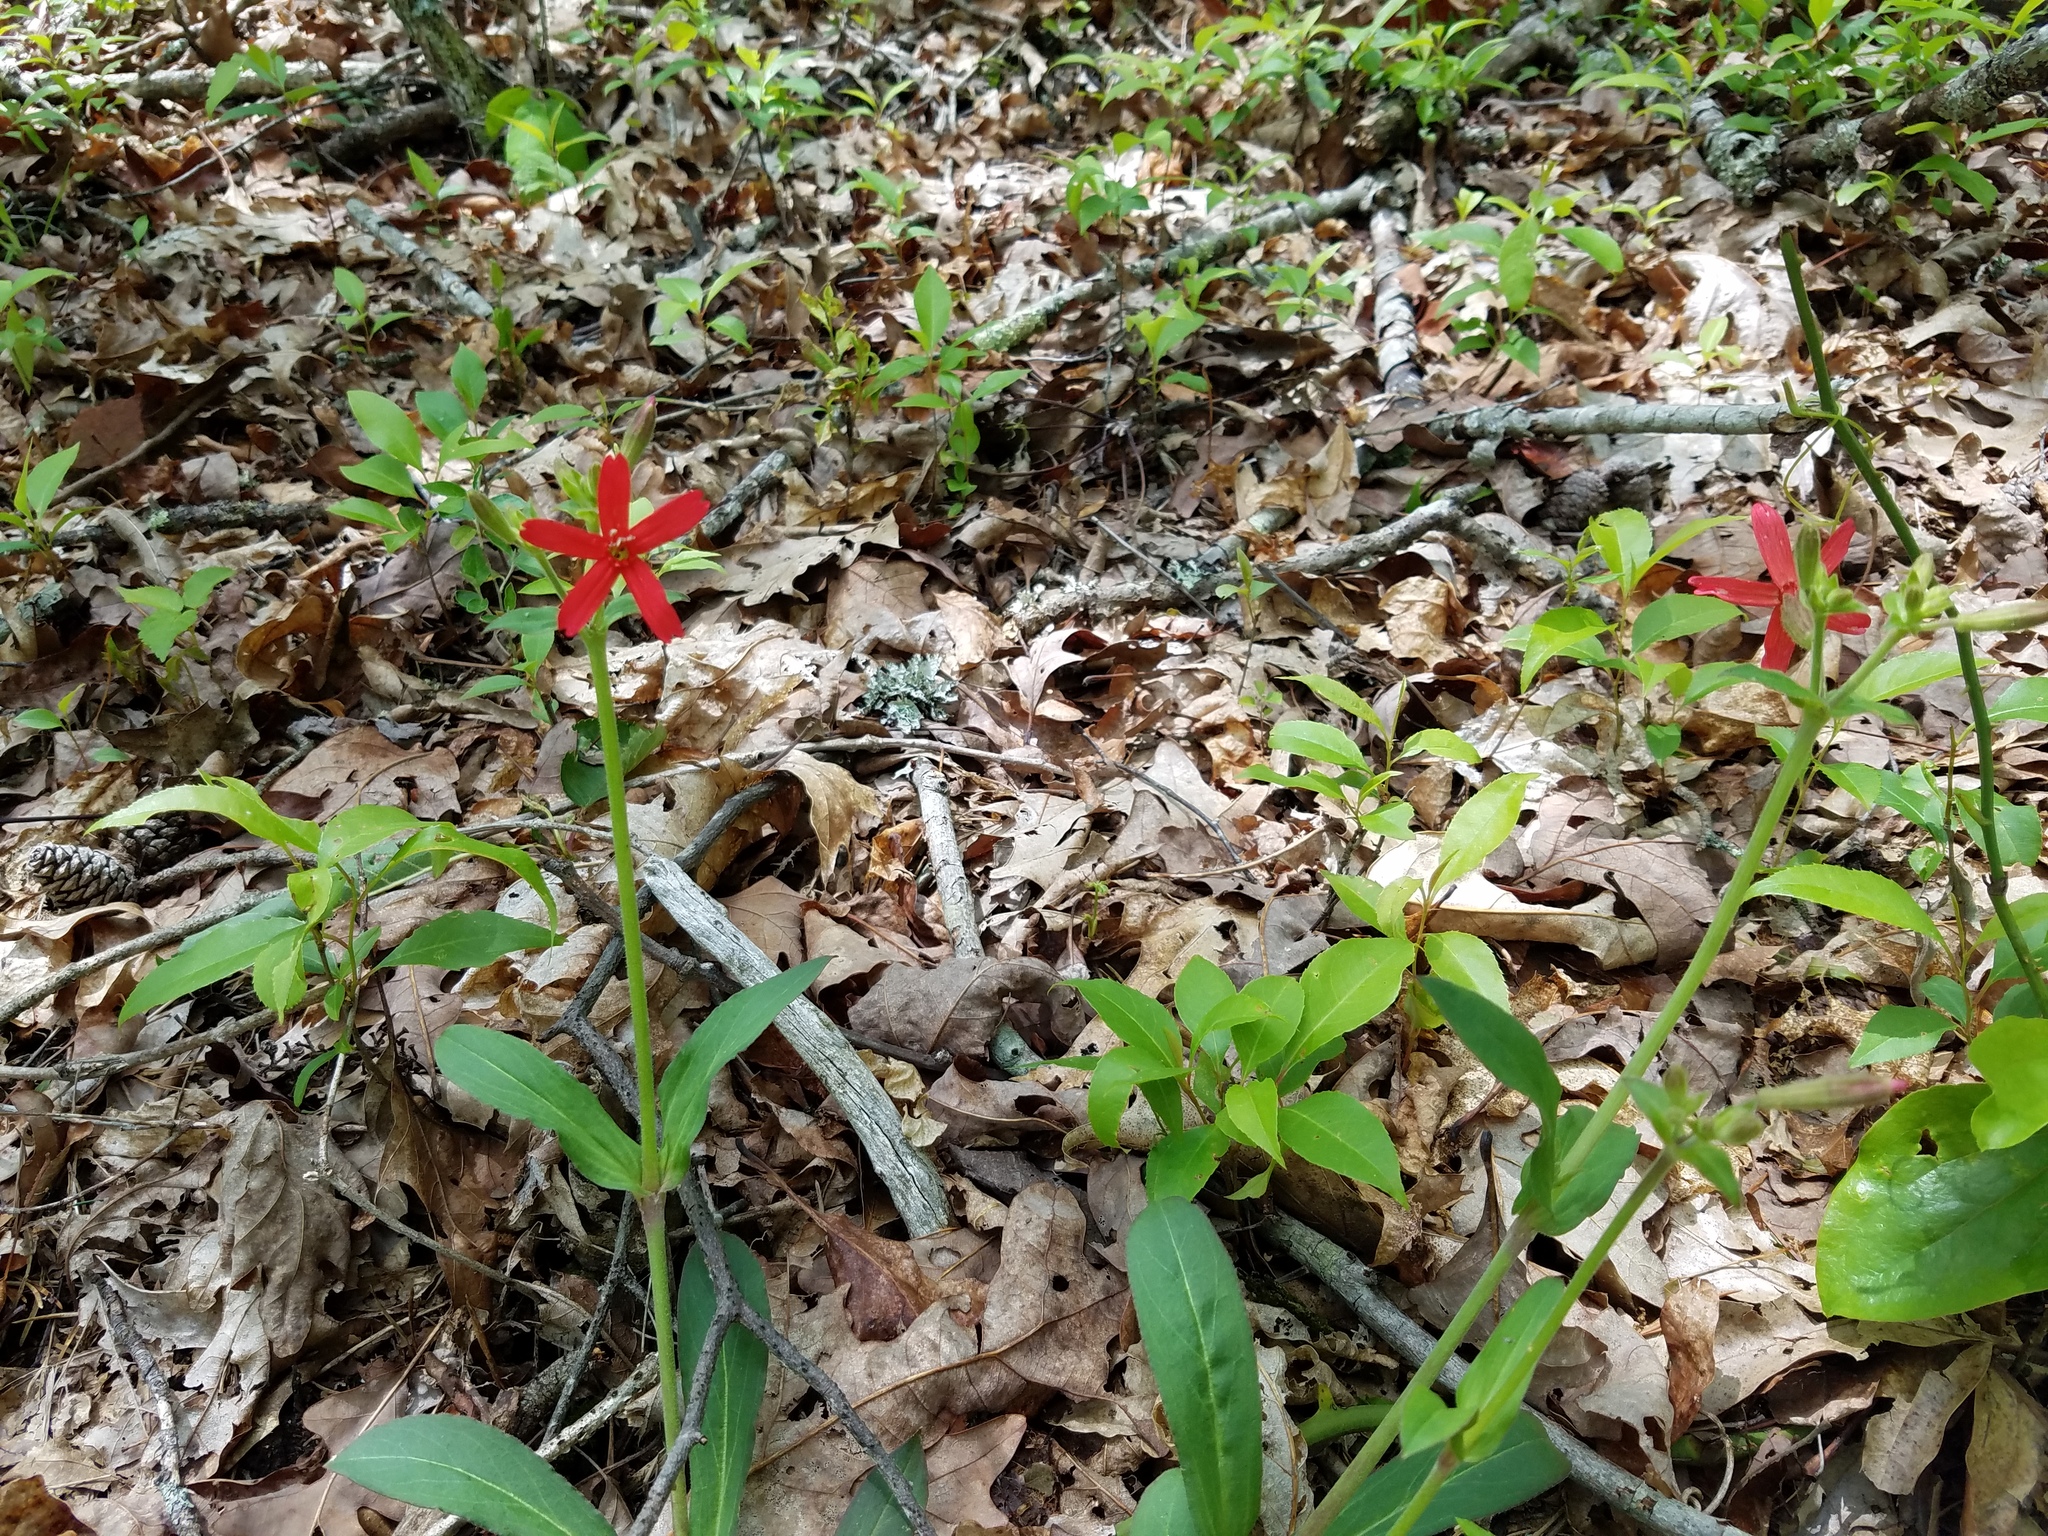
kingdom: Plantae
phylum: Tracheophyta
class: Magnoliopsida
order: Caryophyllales
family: Caryophyllaceae
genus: Silene
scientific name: Silene virginica
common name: Fire-pink
